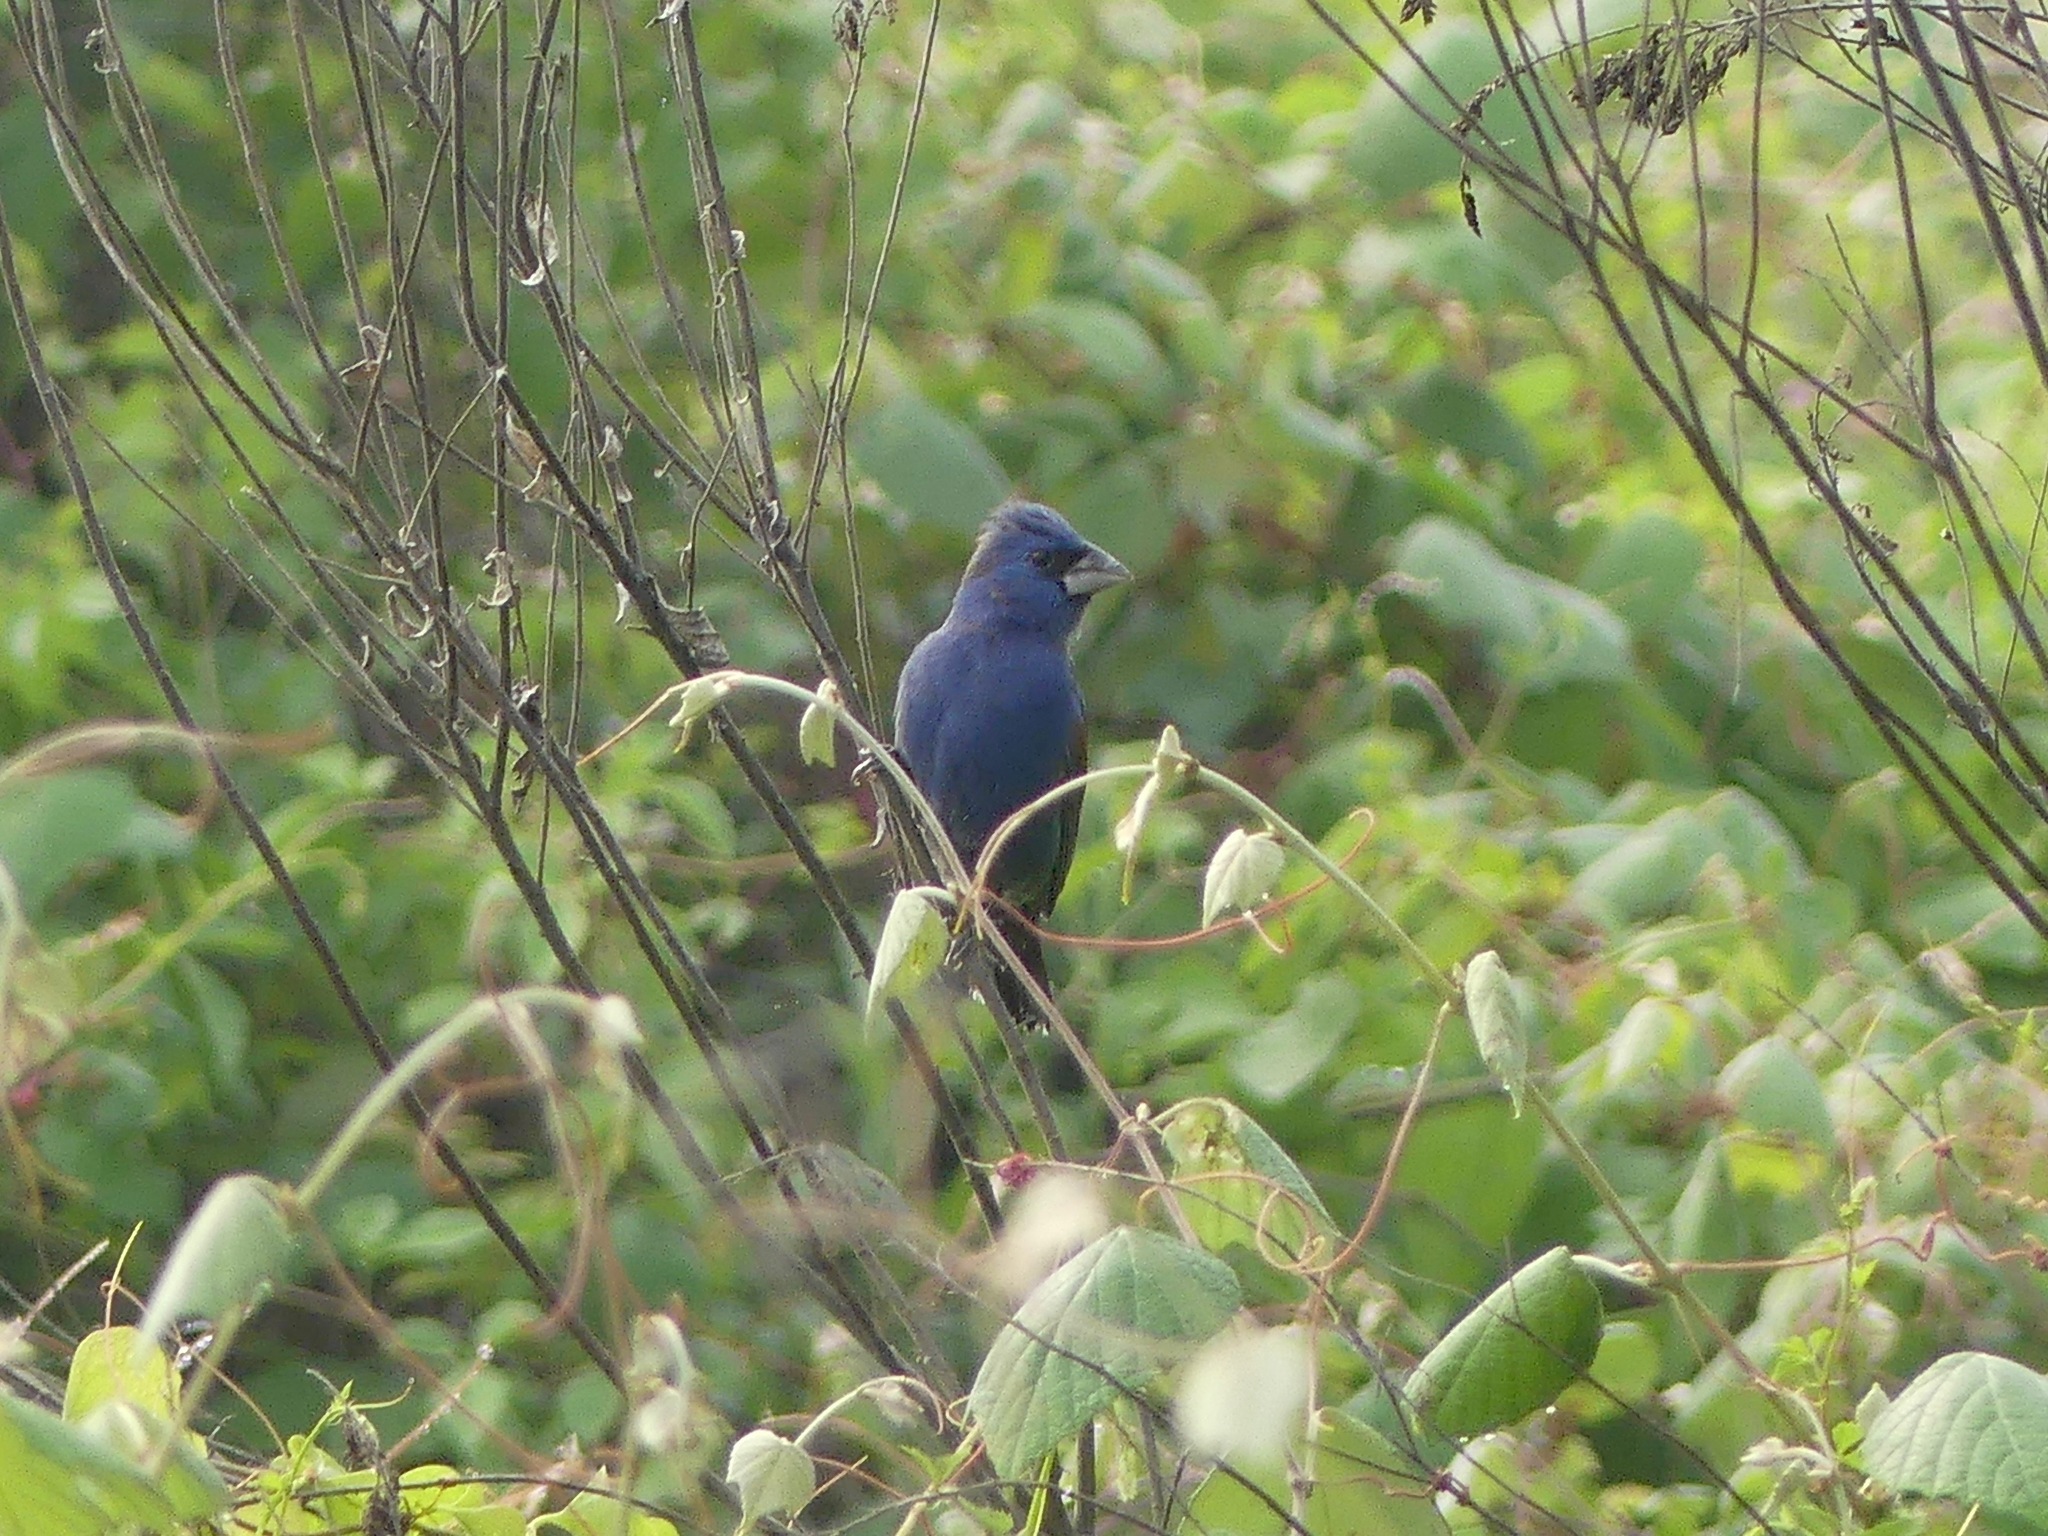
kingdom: Animalia
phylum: Chordata
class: Aves
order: Passeriformes
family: Cardinalidae
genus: Passerina
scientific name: Passerina caerulea
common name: Blue grosbeak
